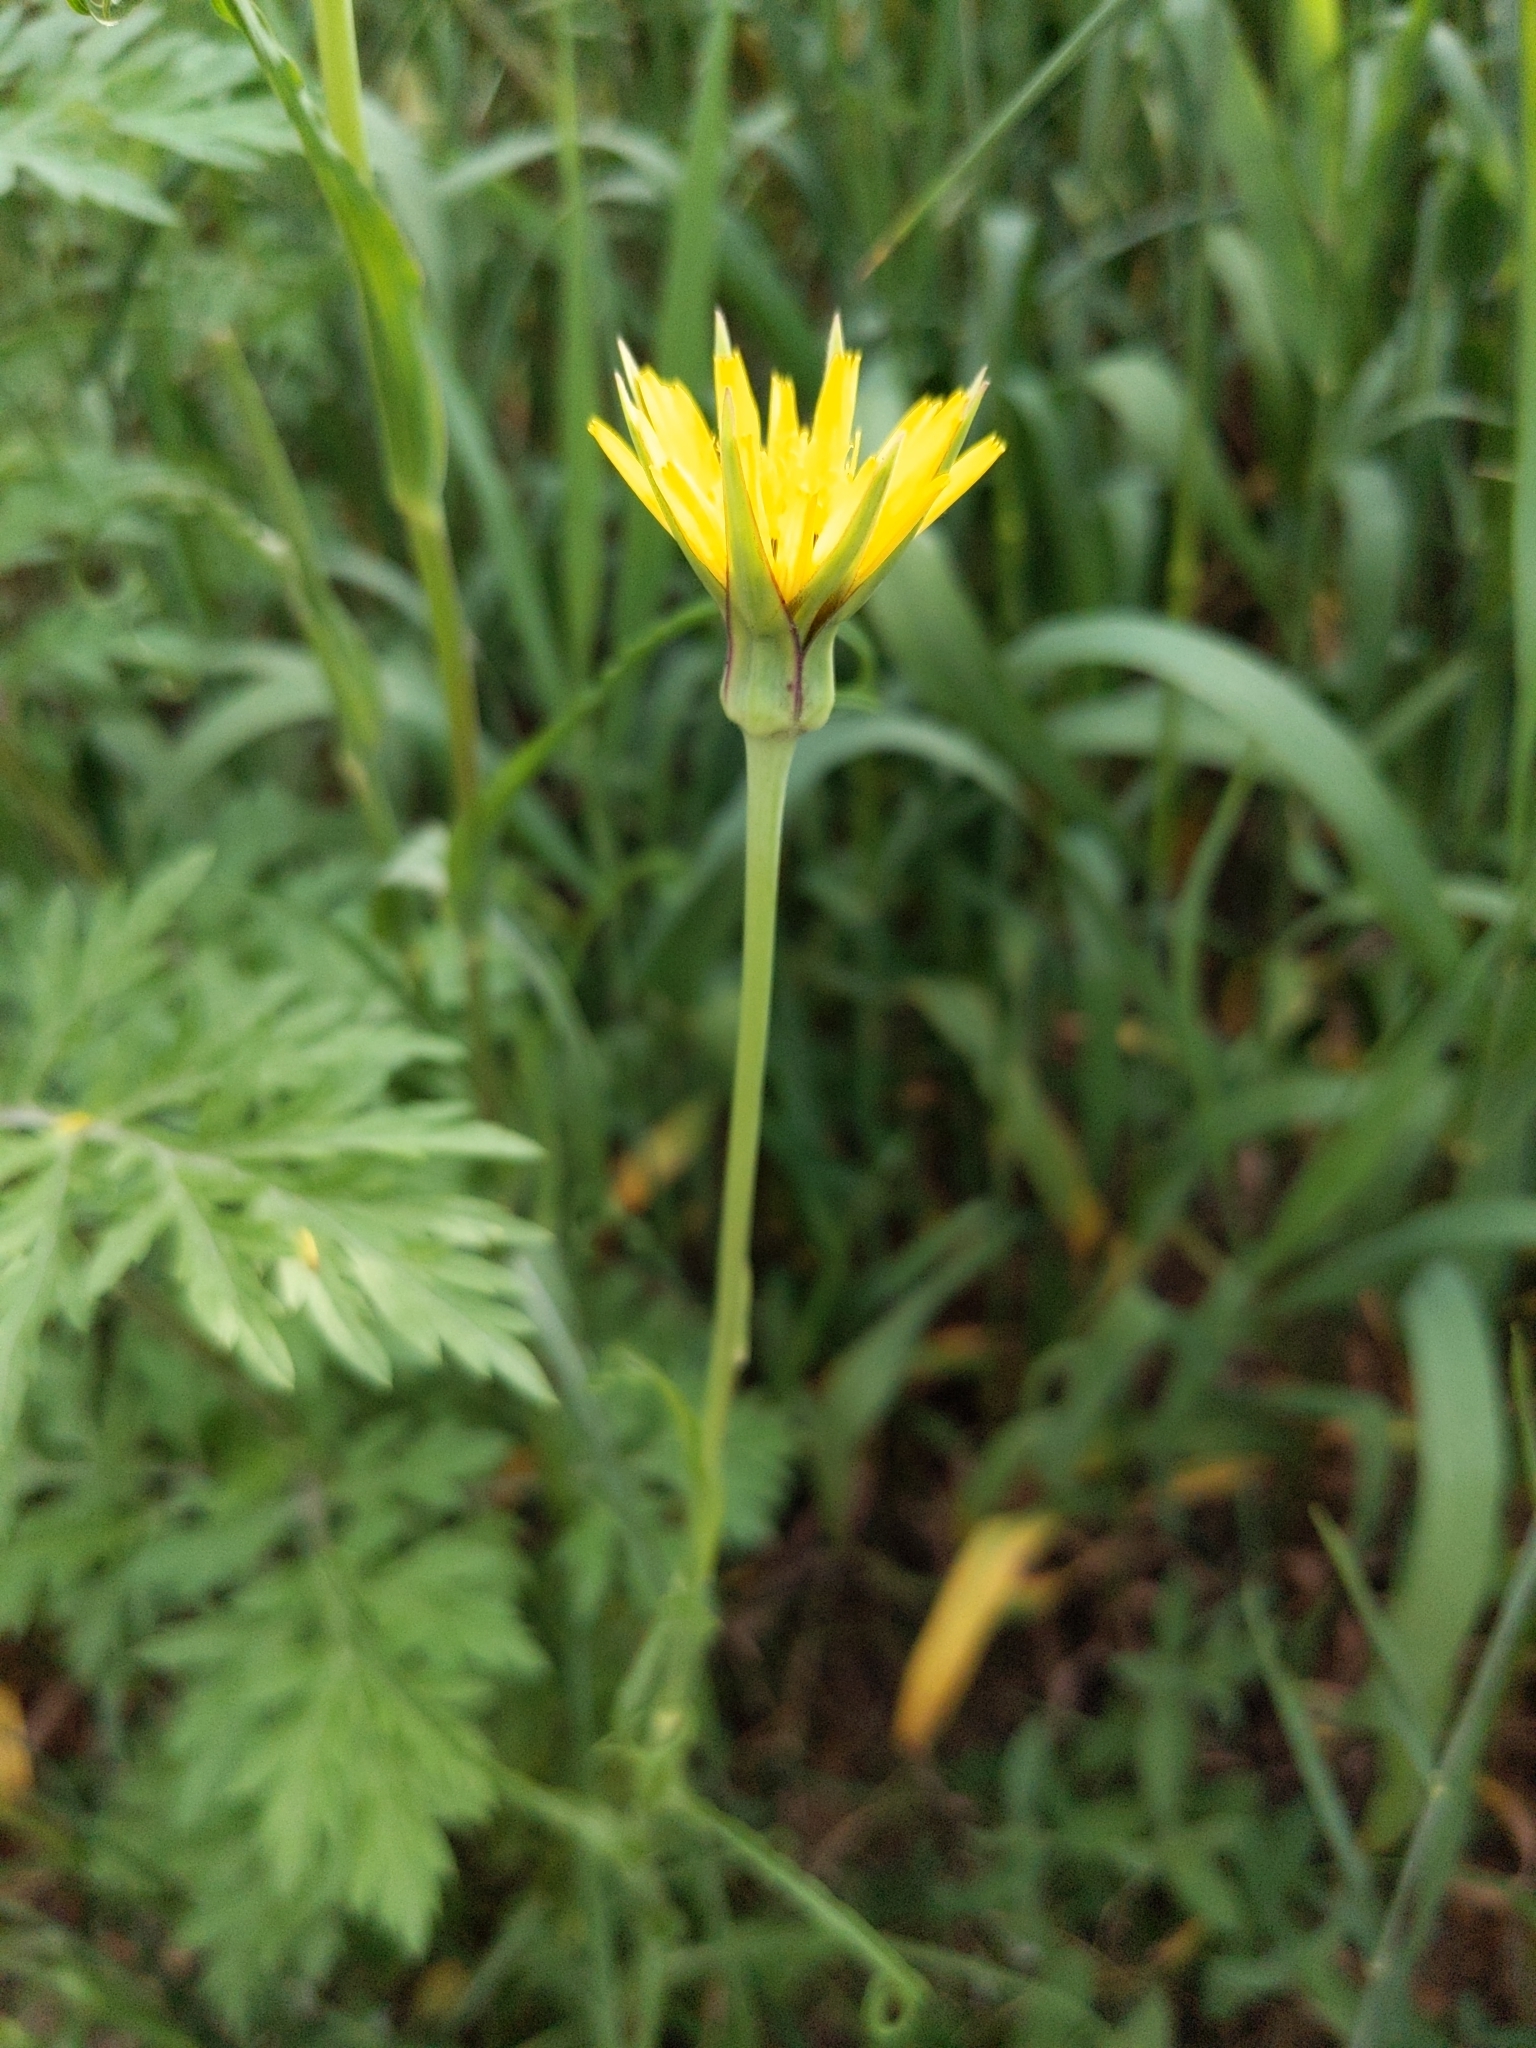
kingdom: Plantae
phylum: Tracheophyta
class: Magnoliopsida
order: Asterales
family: Asteraceae
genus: Tragopogon
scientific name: Tragopogon pratensis
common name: Goat's-beard
